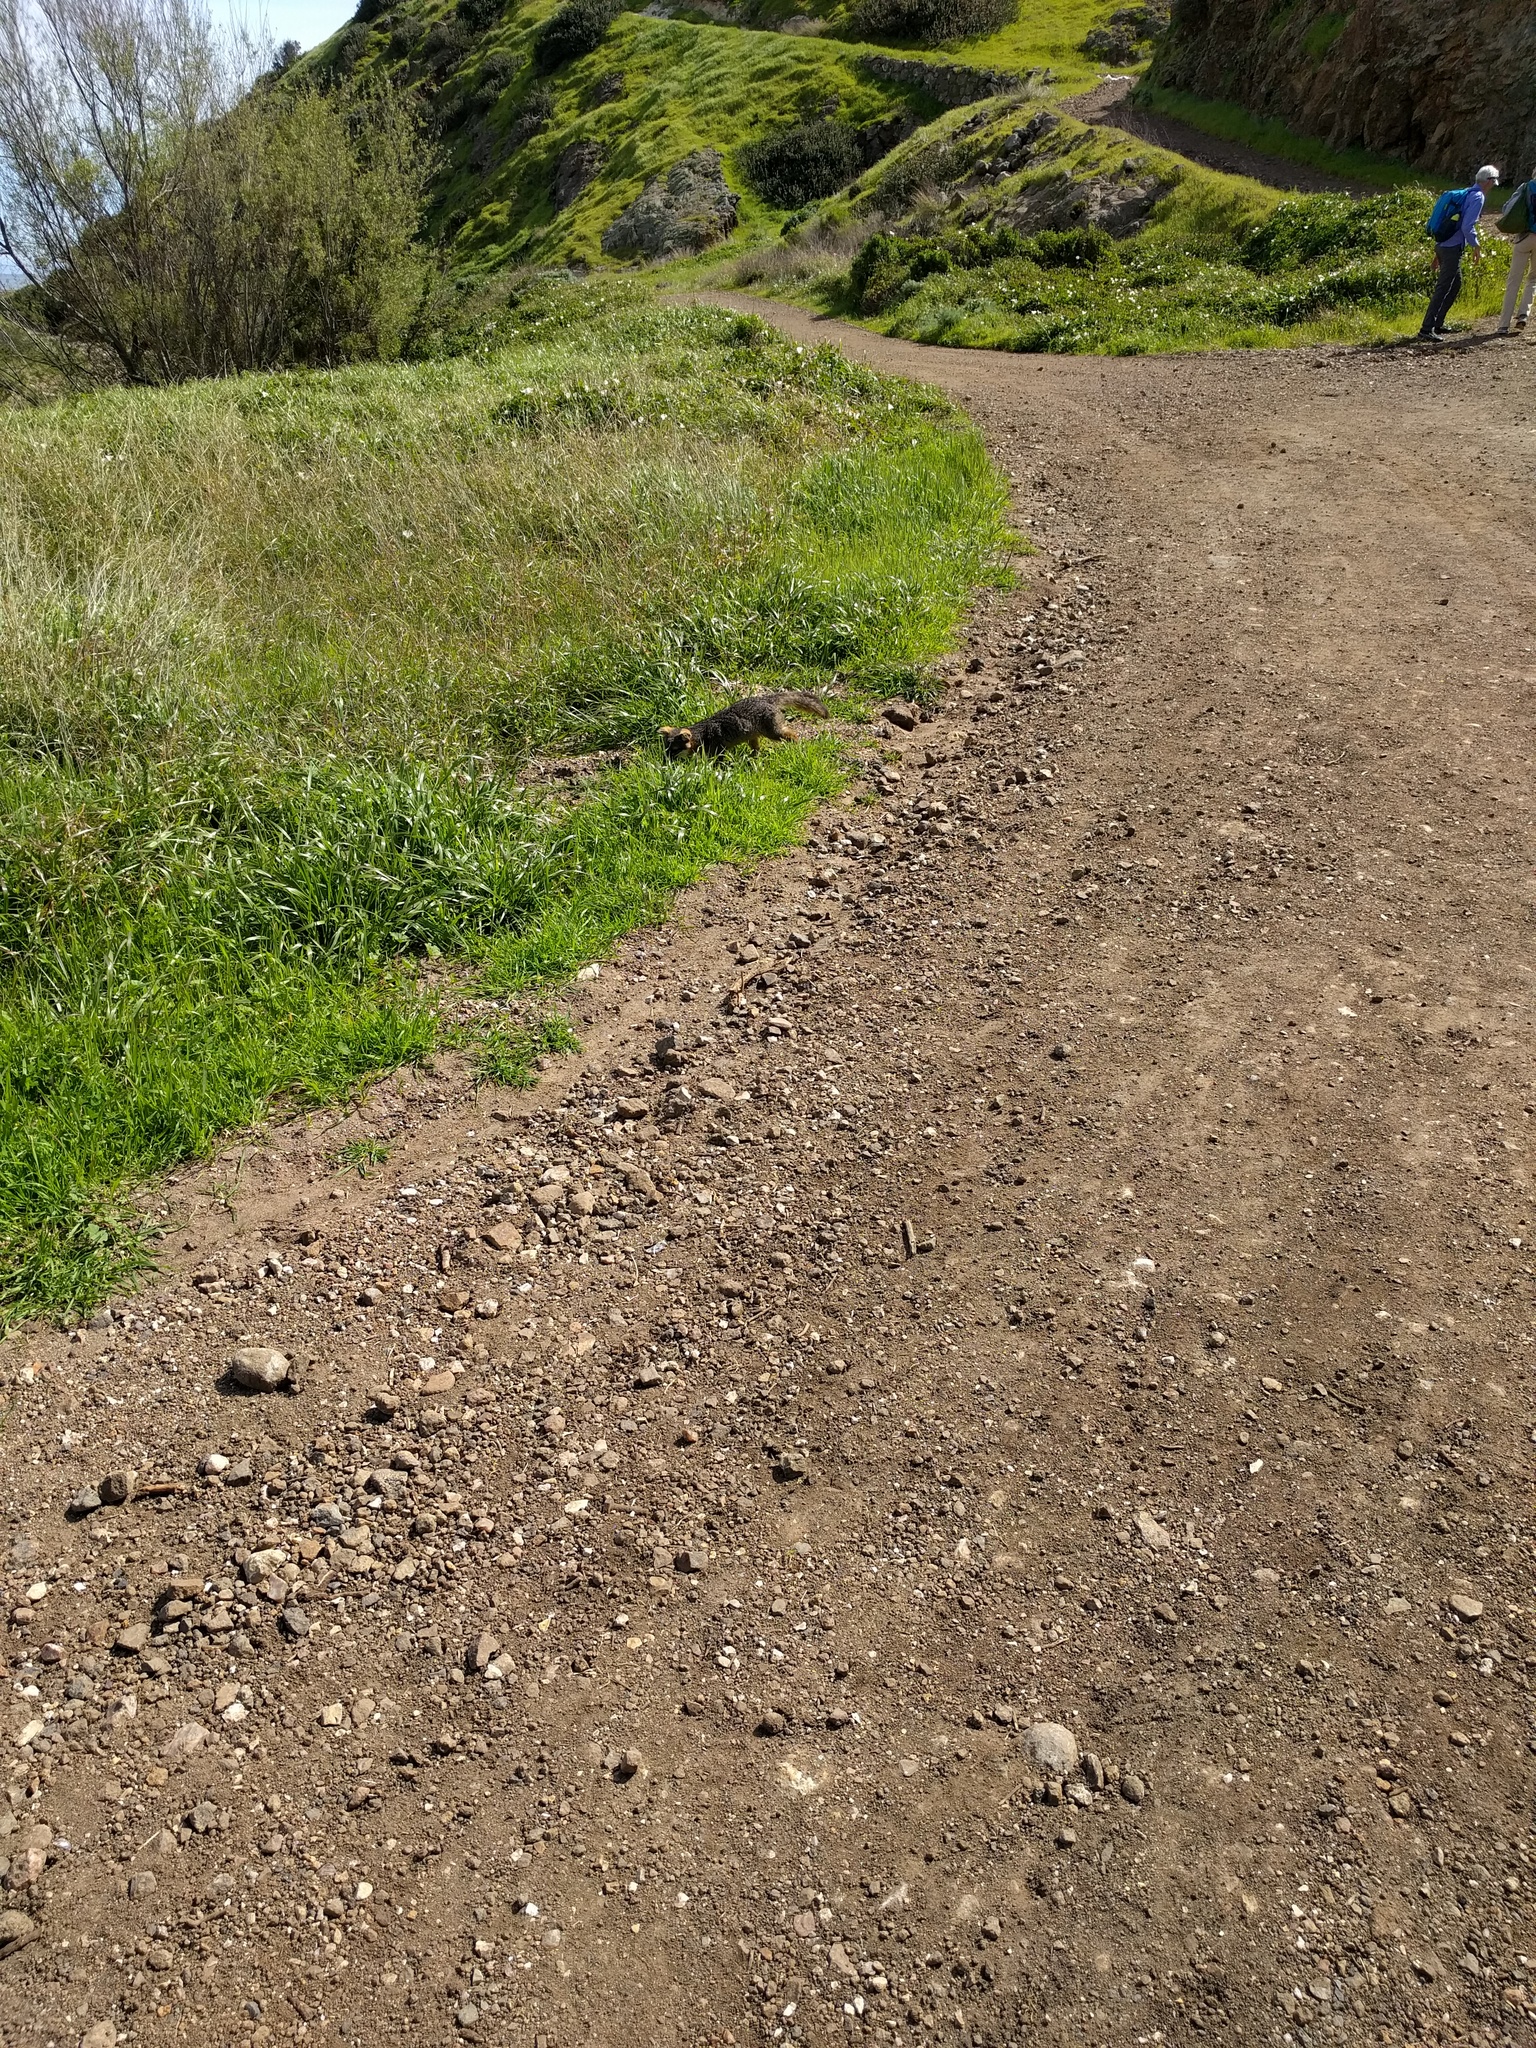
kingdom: Animalia
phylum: Chordata
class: Mammalia
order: Carnivora
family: Canidae
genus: Urocyon
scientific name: Urocyon littoralis
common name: Island gray fox
